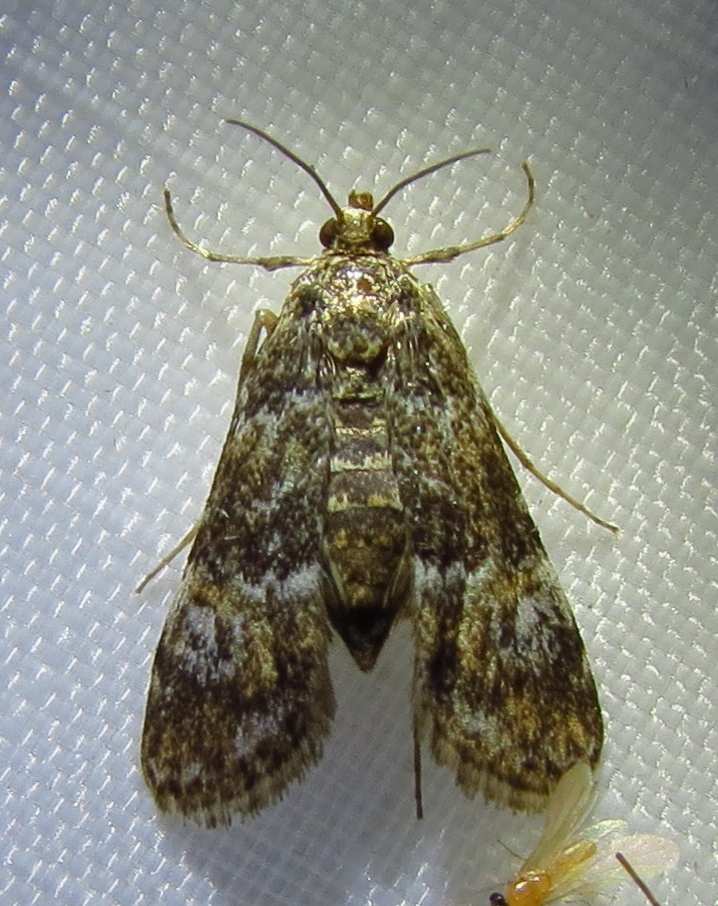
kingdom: Animalia
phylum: Arthropoda
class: Insecta
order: Lepidoptera
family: Crambidae
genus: Elophila
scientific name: Elophila obliteralis
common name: Waterlily leafcutter moth
